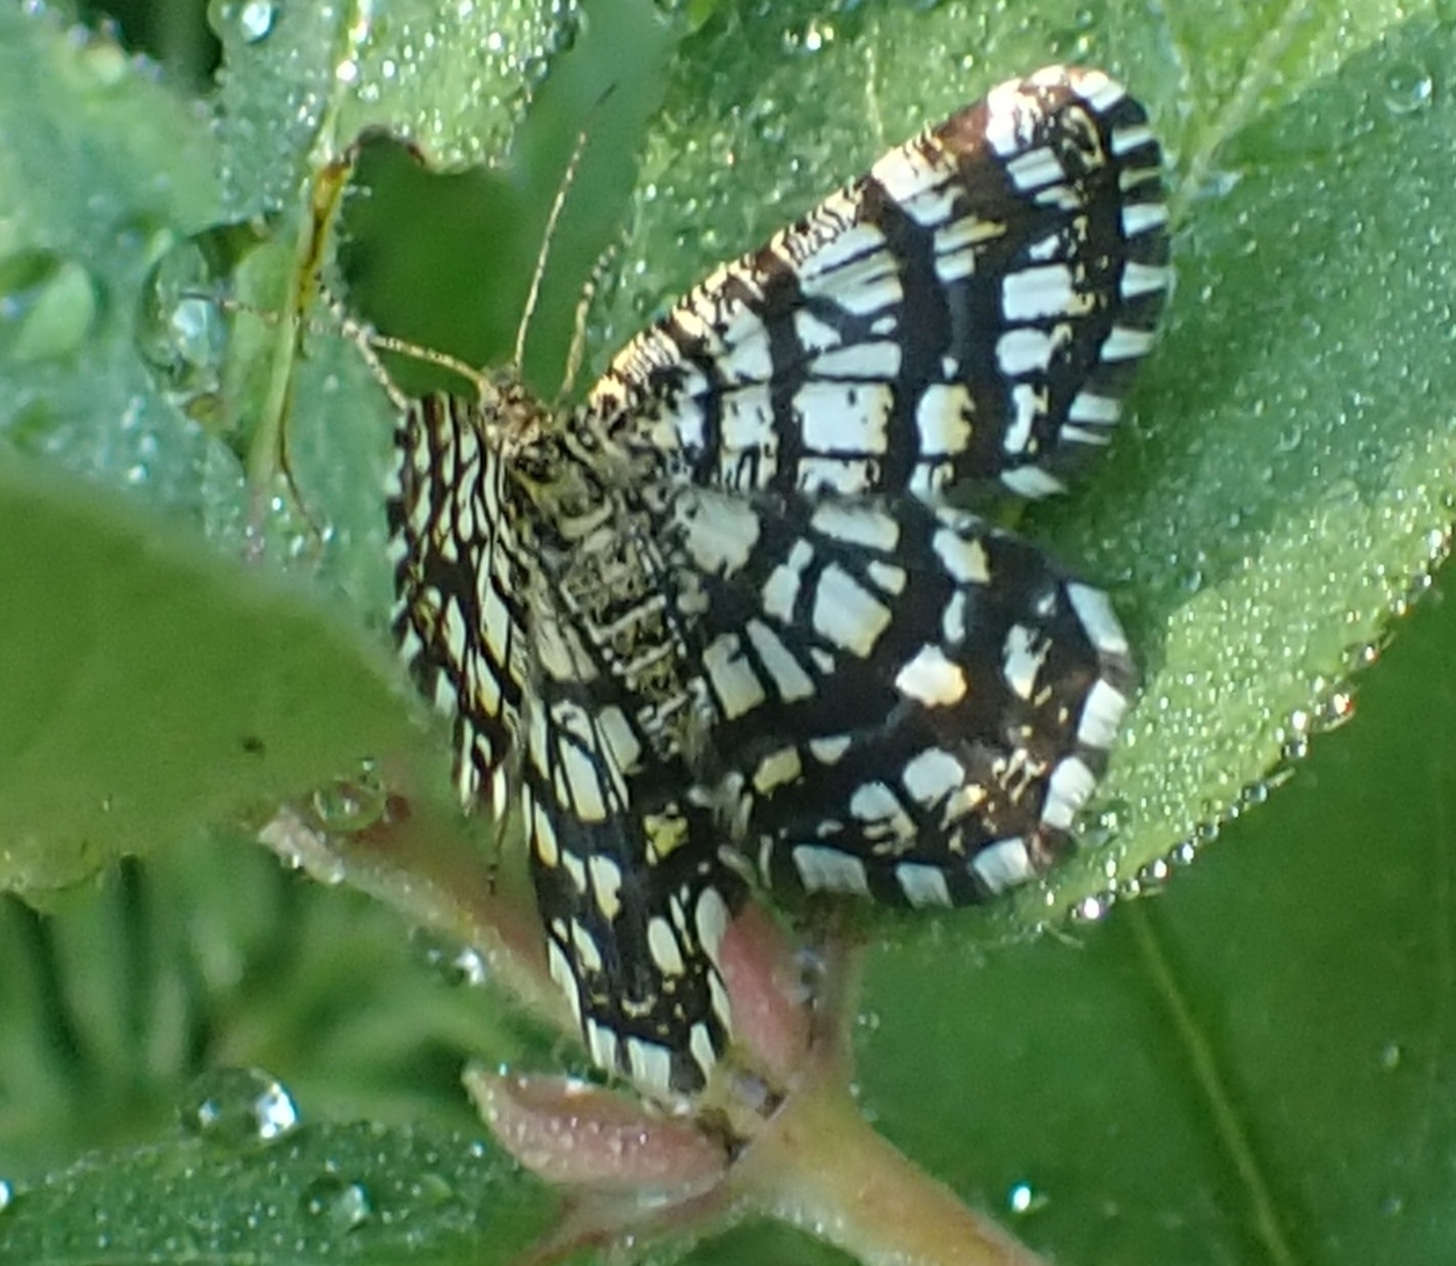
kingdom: Animalia
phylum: Arthropoda
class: Insecta
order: Lepidoptera
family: Geometridae
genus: Chiasmia
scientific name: Chiasmia clathrata
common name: Latticed heath
